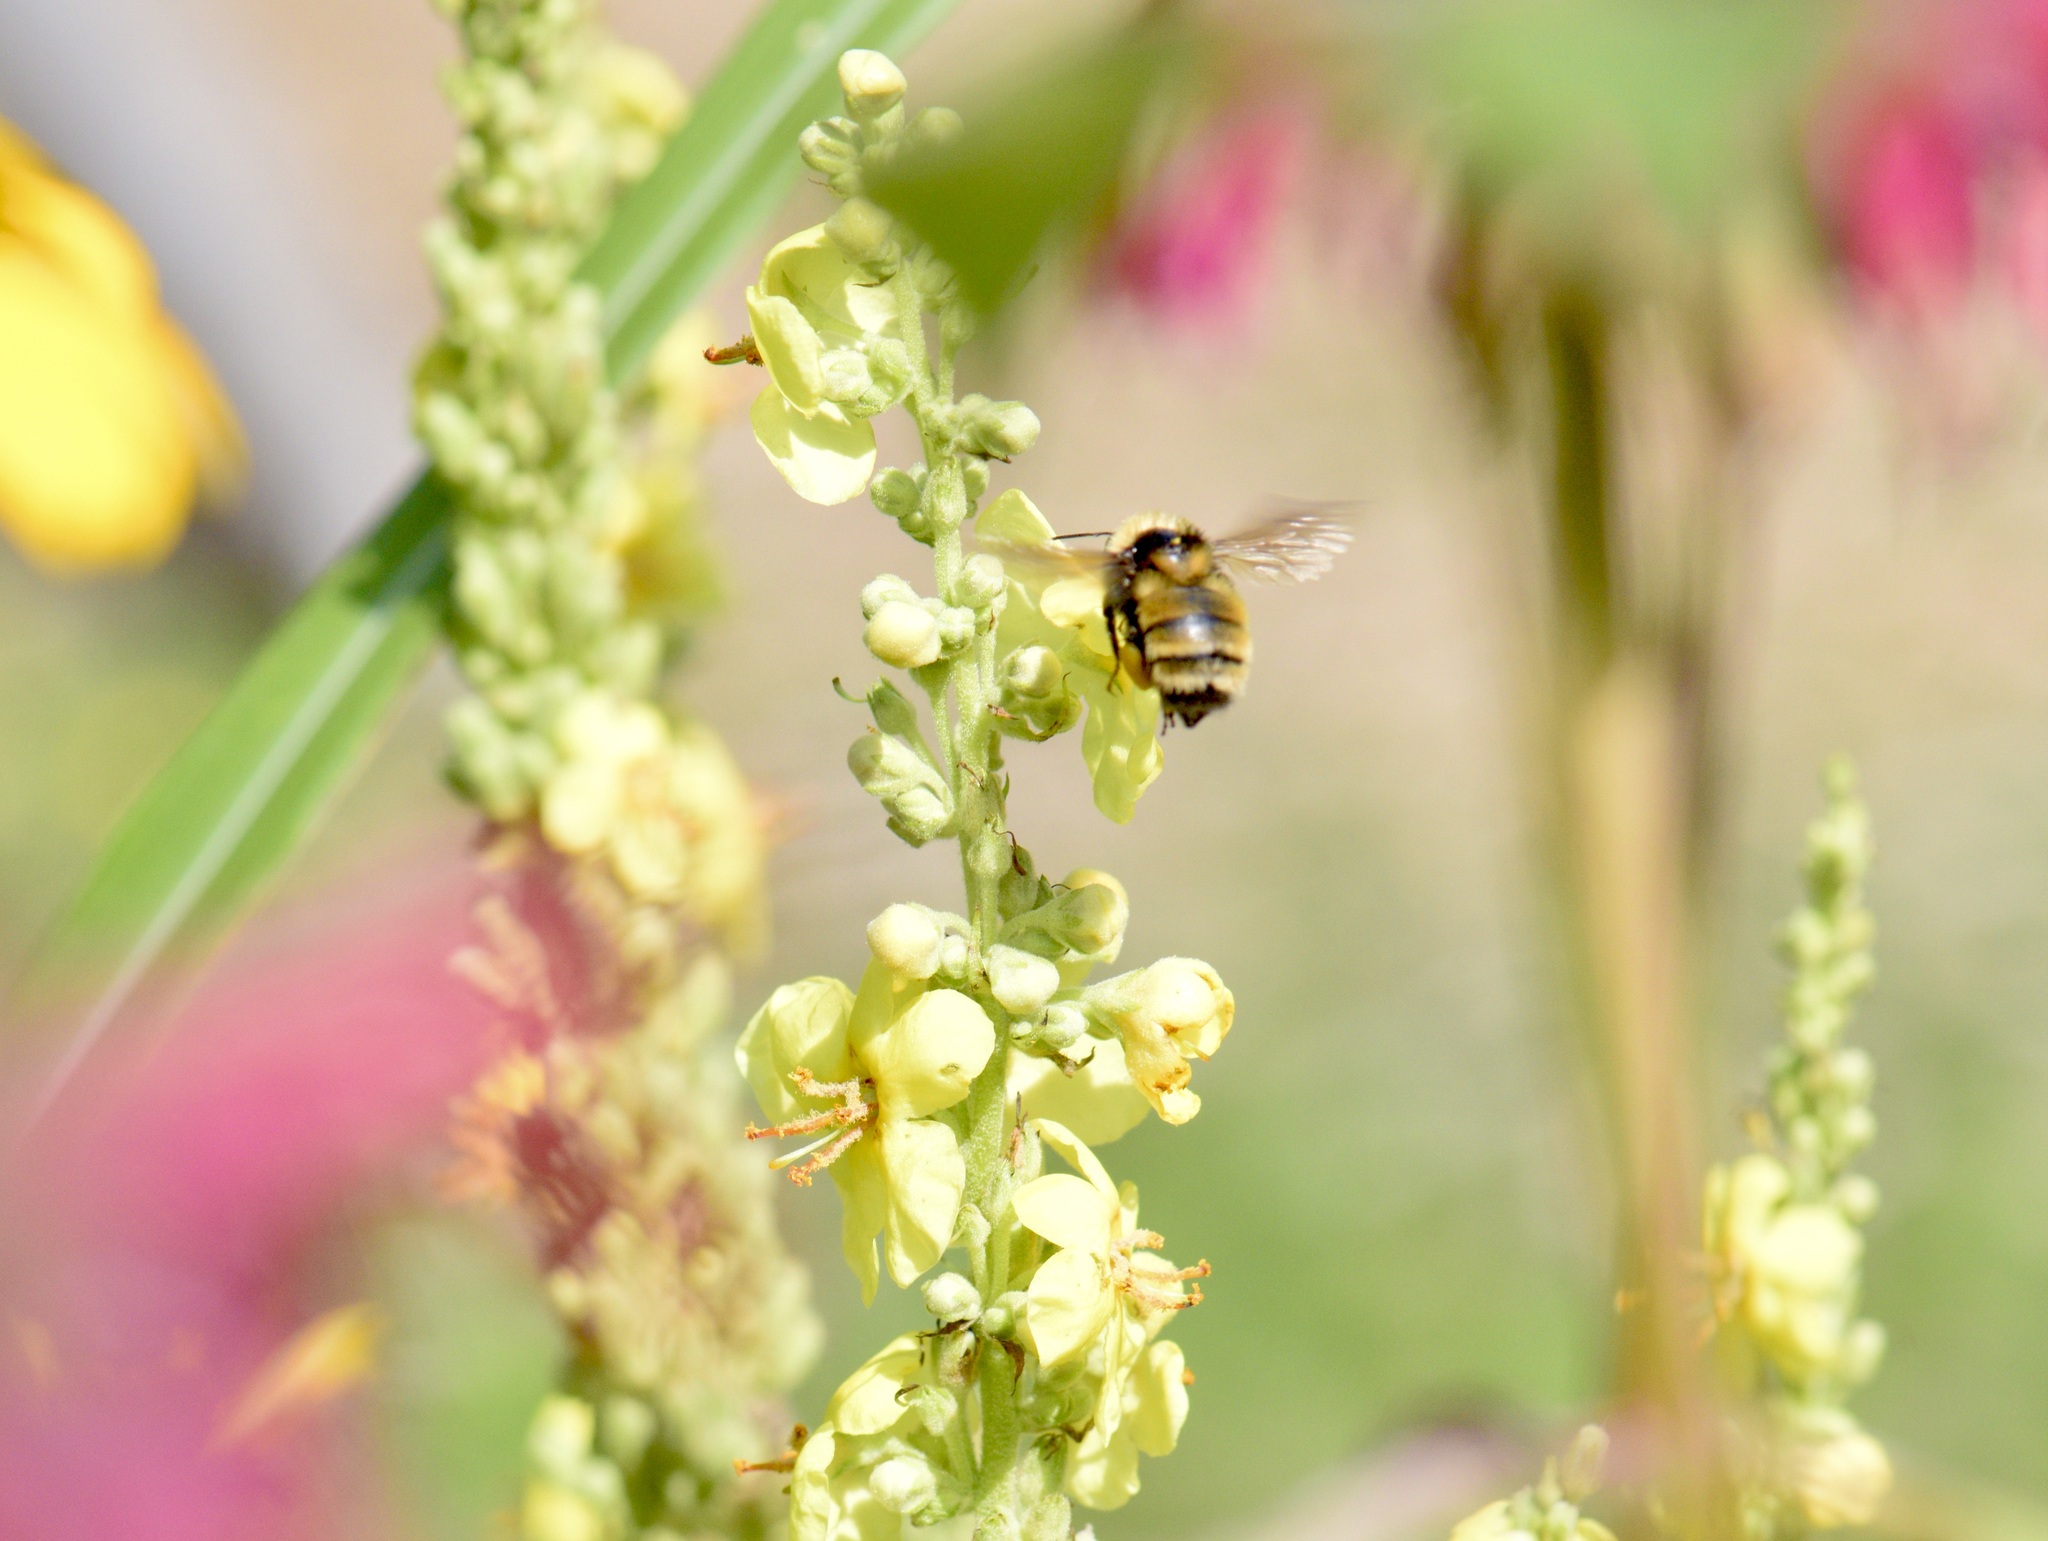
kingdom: Animalia
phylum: Arthropoda
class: Insecta
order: Hymenoptera
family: Apidae
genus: Bombus
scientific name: Bombus borealis
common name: Northern amber bumble bee
